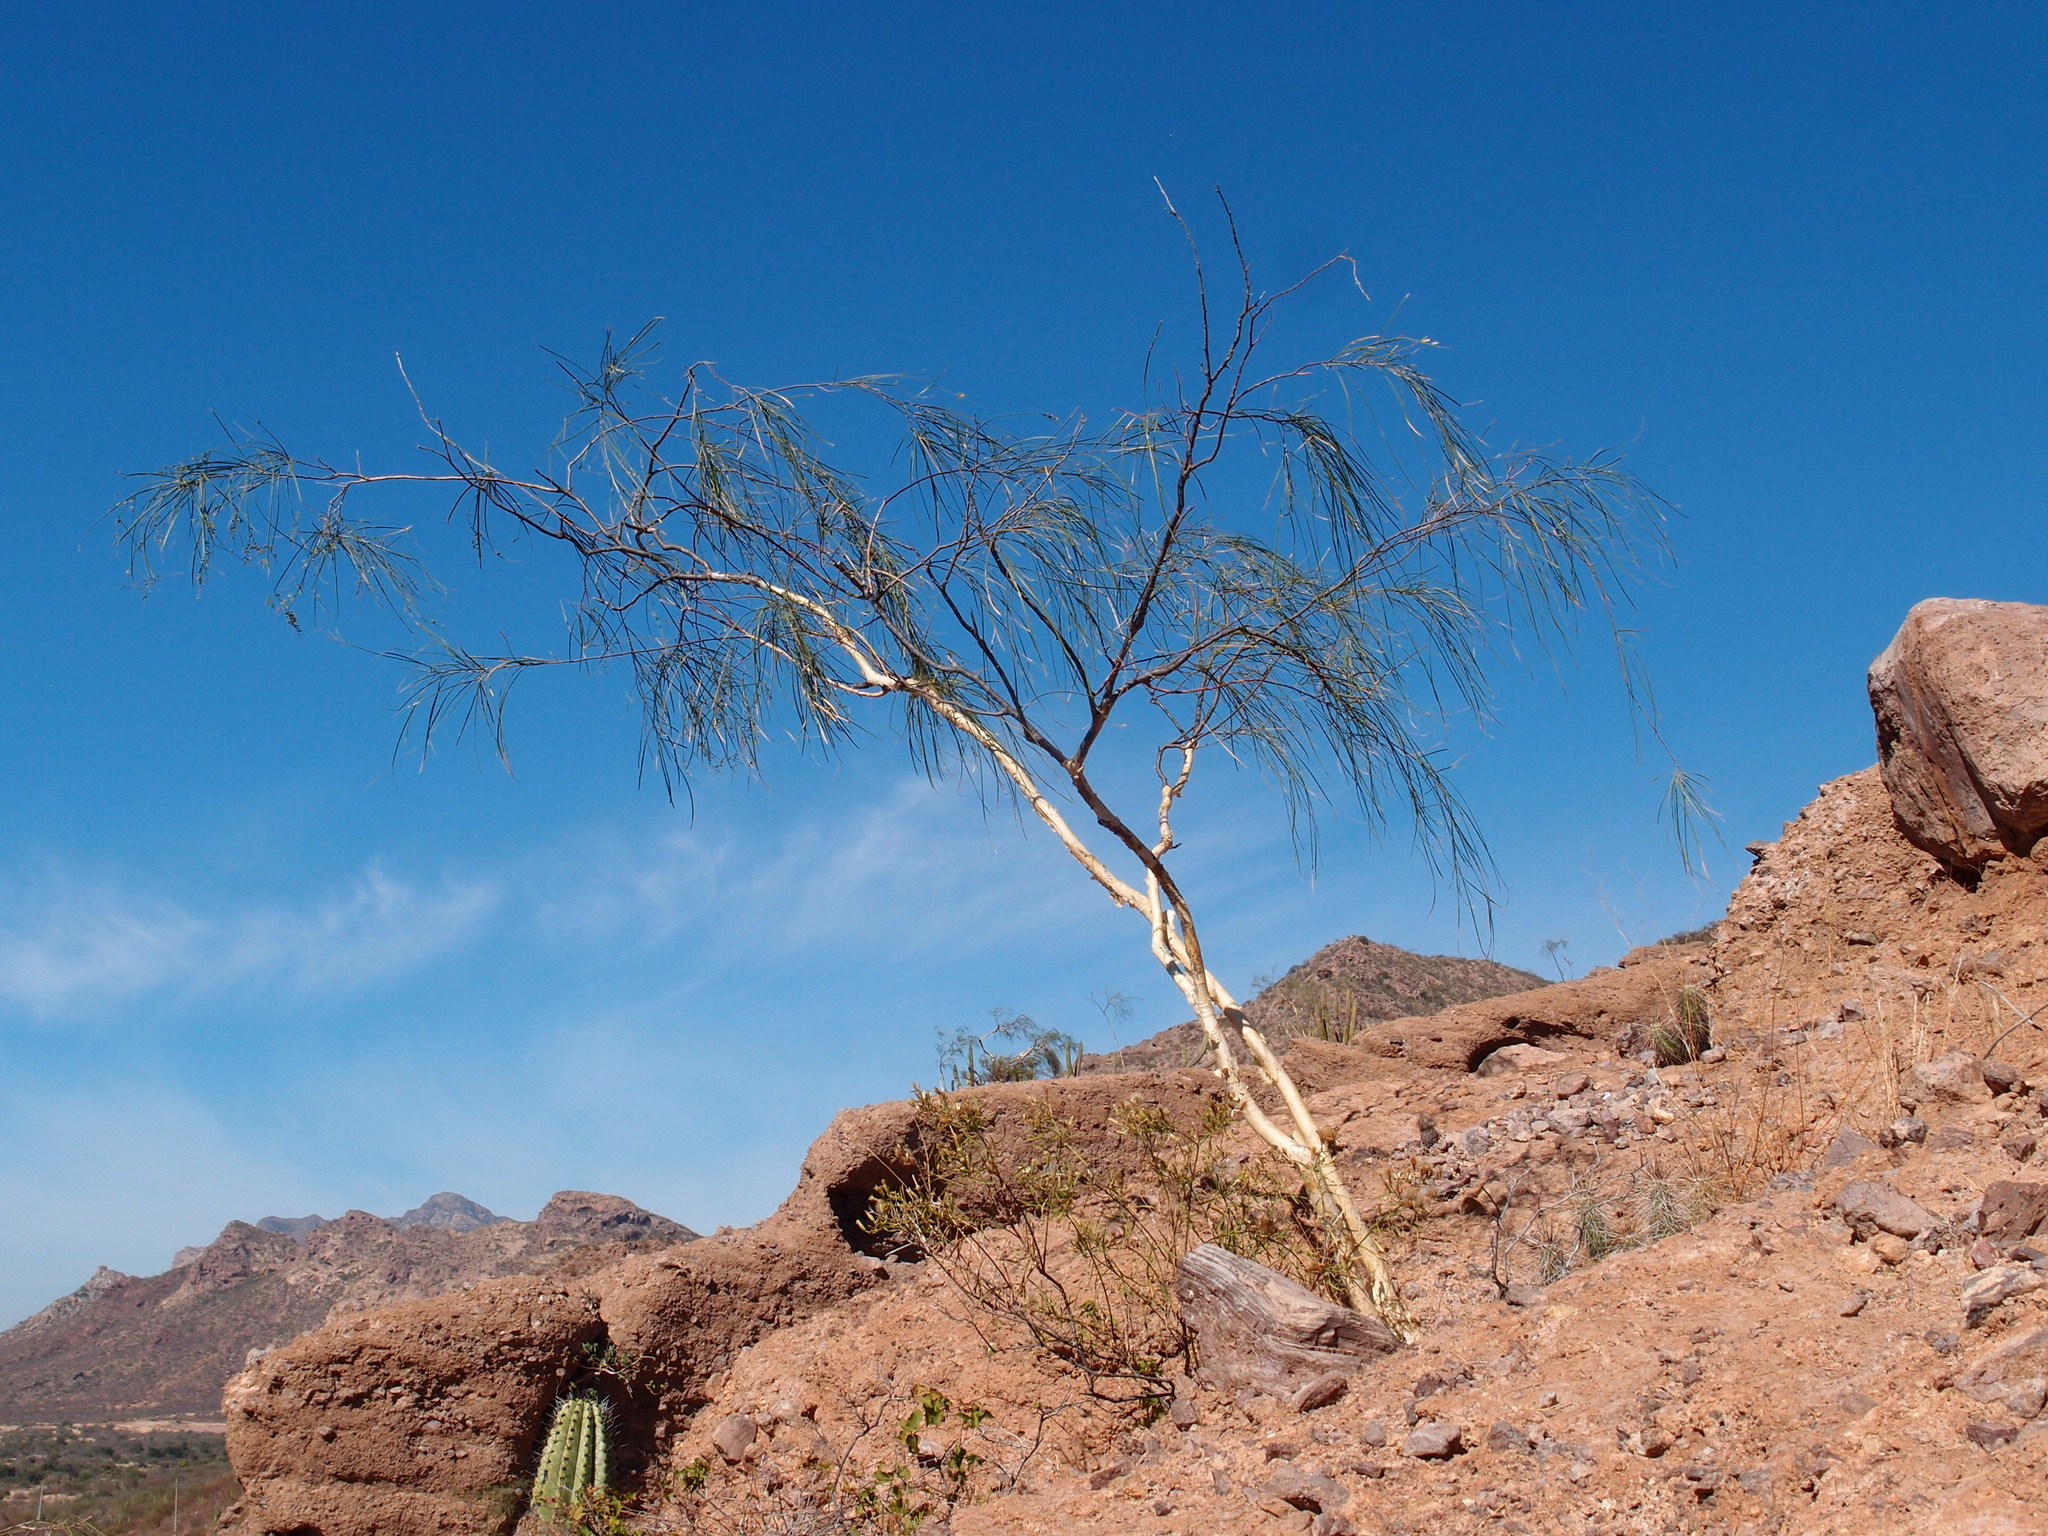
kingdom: Plantae
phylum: Tracheophyta
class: Magnoliopsida
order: Fabales
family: Fabaceae
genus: Mariosousa
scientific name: Mariosousa heterophylla
